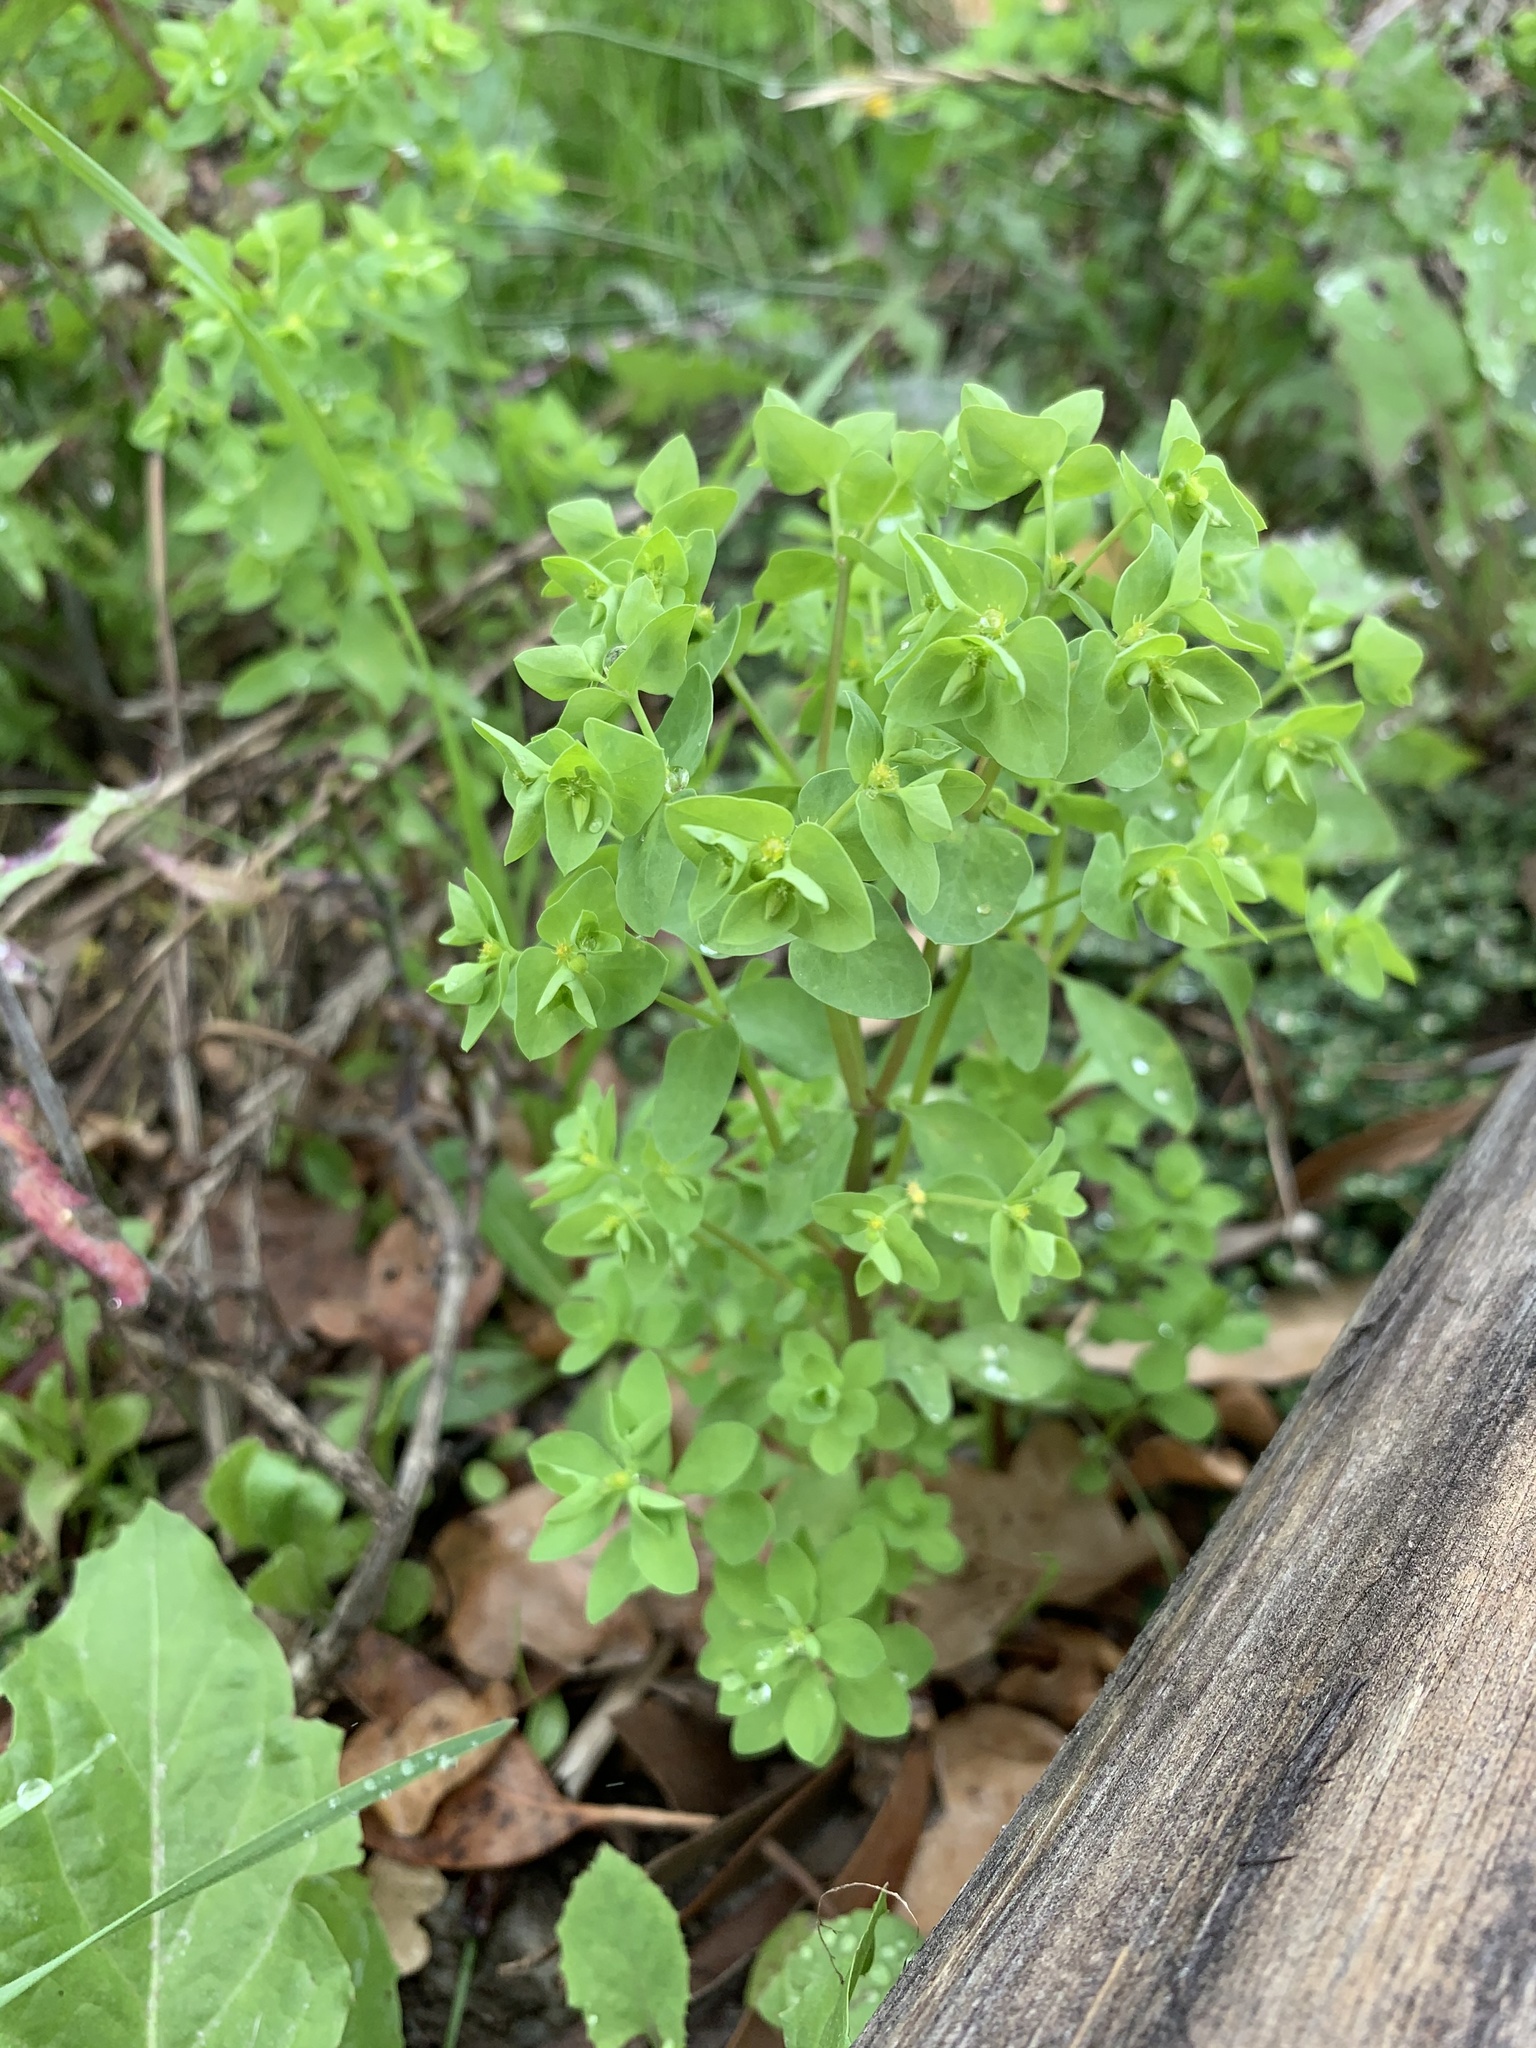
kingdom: Plantae
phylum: Tracheophyta
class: Magnoliopsida
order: Malpighiales
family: Euphorbiaceae
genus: Euphorbia
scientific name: Euphorbia peplus
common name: Petty spurge
